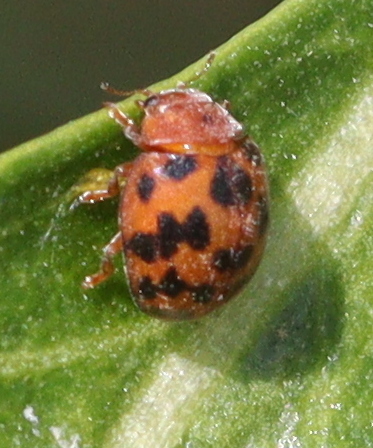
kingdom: Animalia
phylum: Arthropoda
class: Insecta
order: Coleoptera
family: Coccinellidae
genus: Subcoccinella
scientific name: Subcoccinella vigintiquatuorpunctata
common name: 24-spot ladybird
